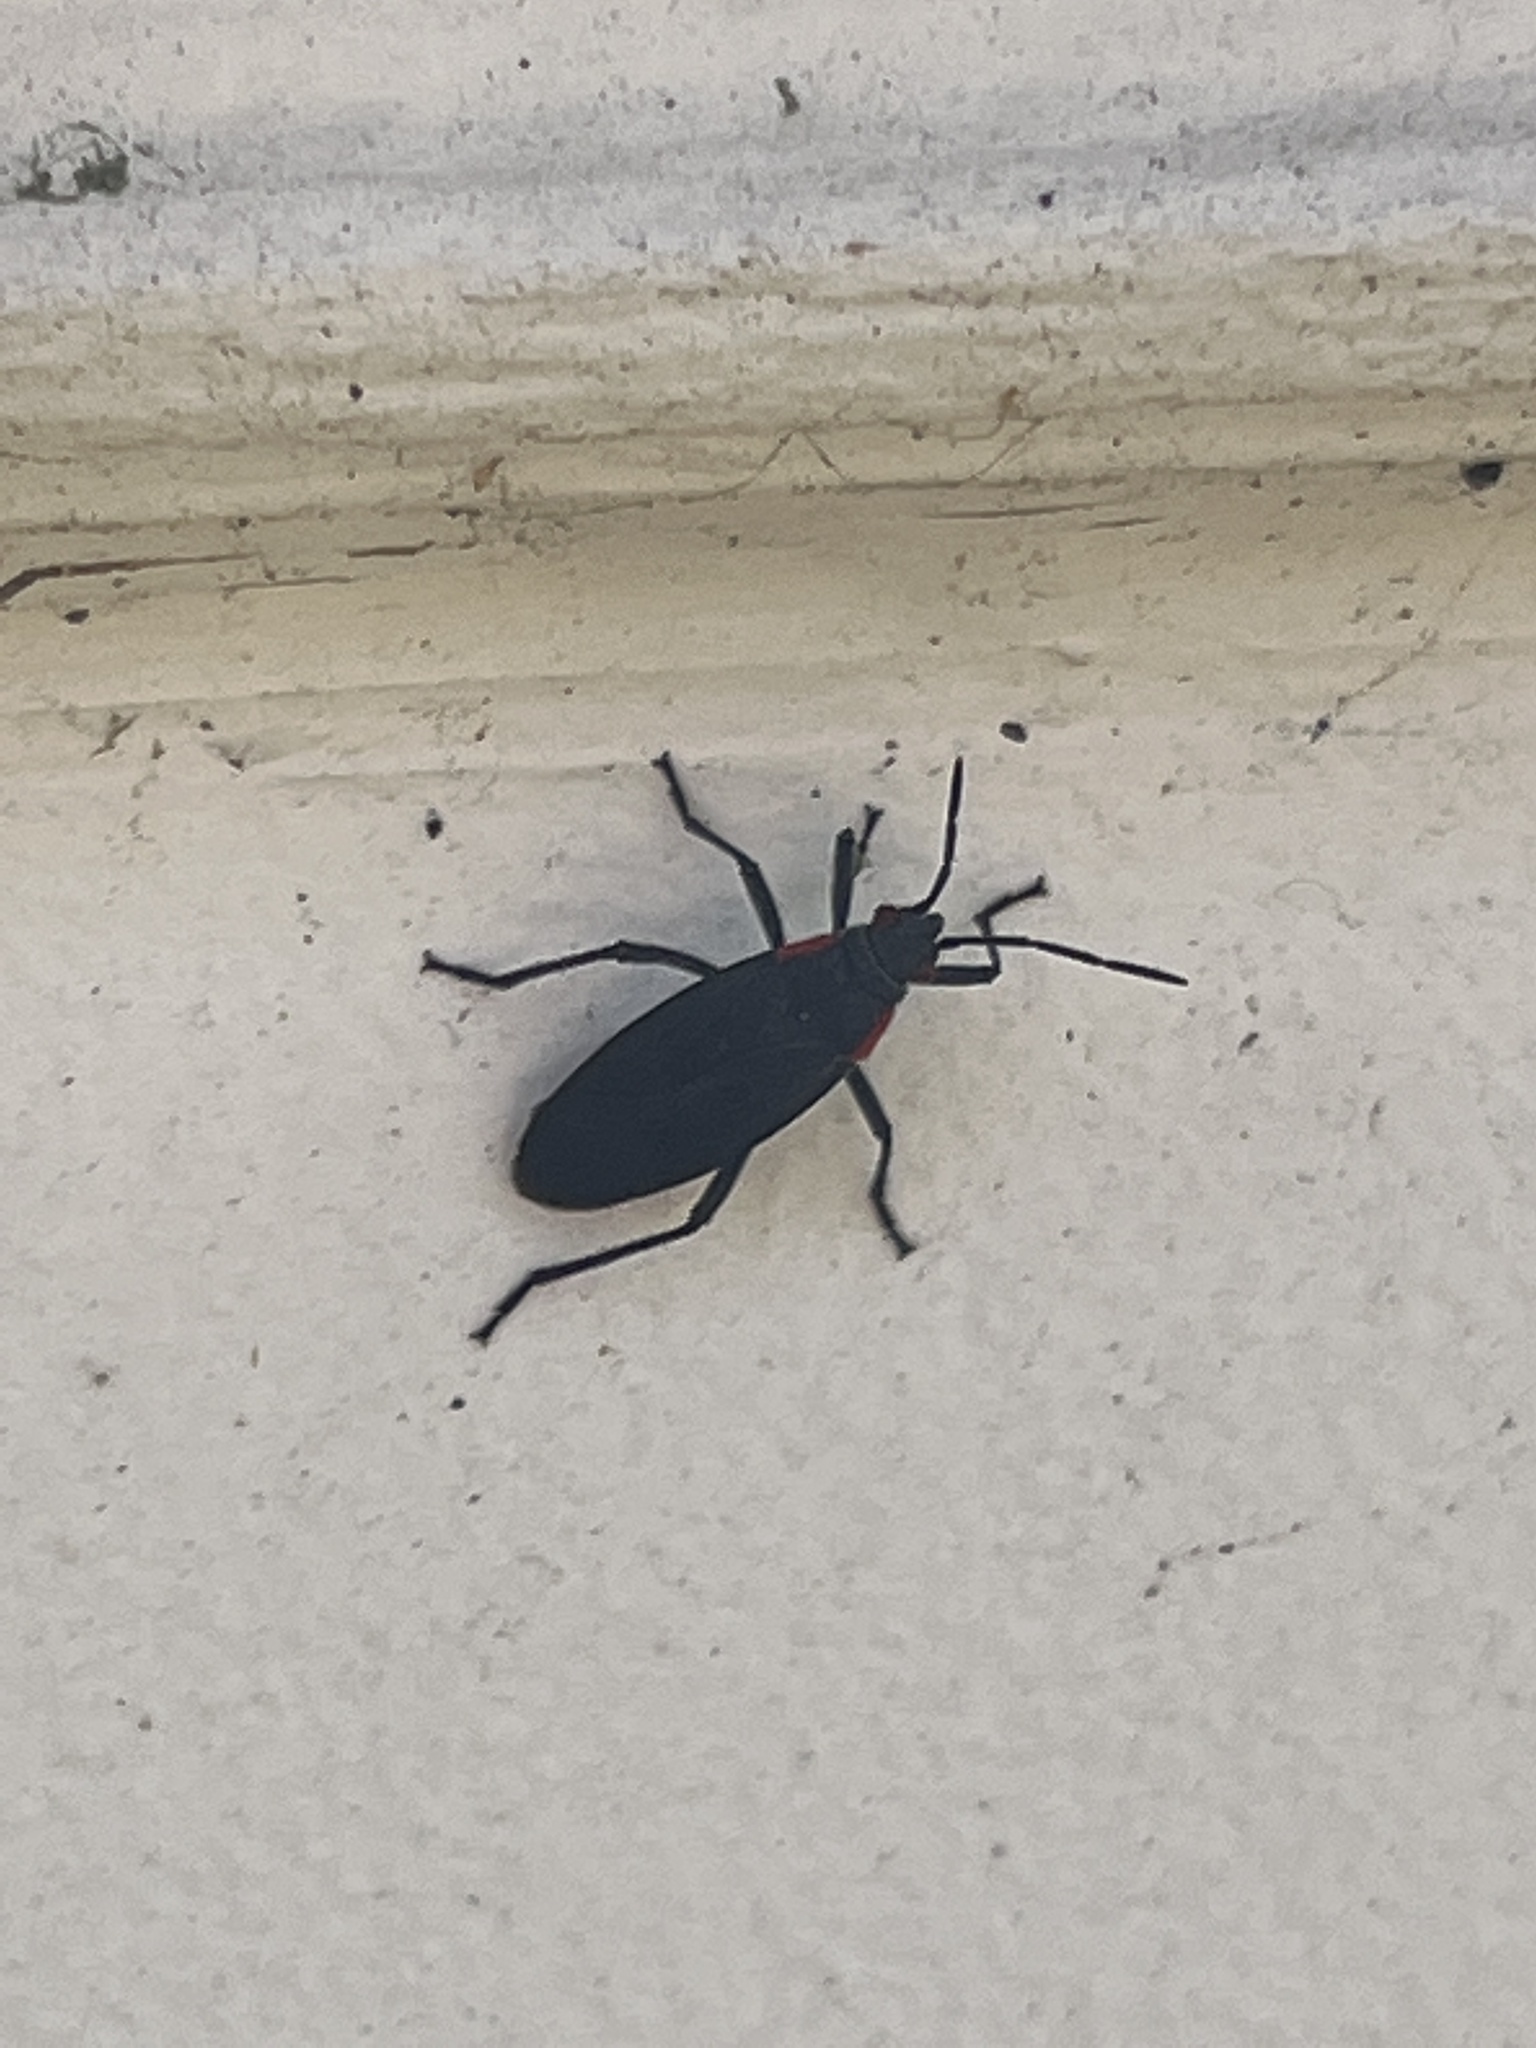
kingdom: Animalia
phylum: Arthropoda
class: Insecta
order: Hemiptera
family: Rhopalidae
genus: Jadera
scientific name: Jadera haematoloma
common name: Red-shouldered bug
